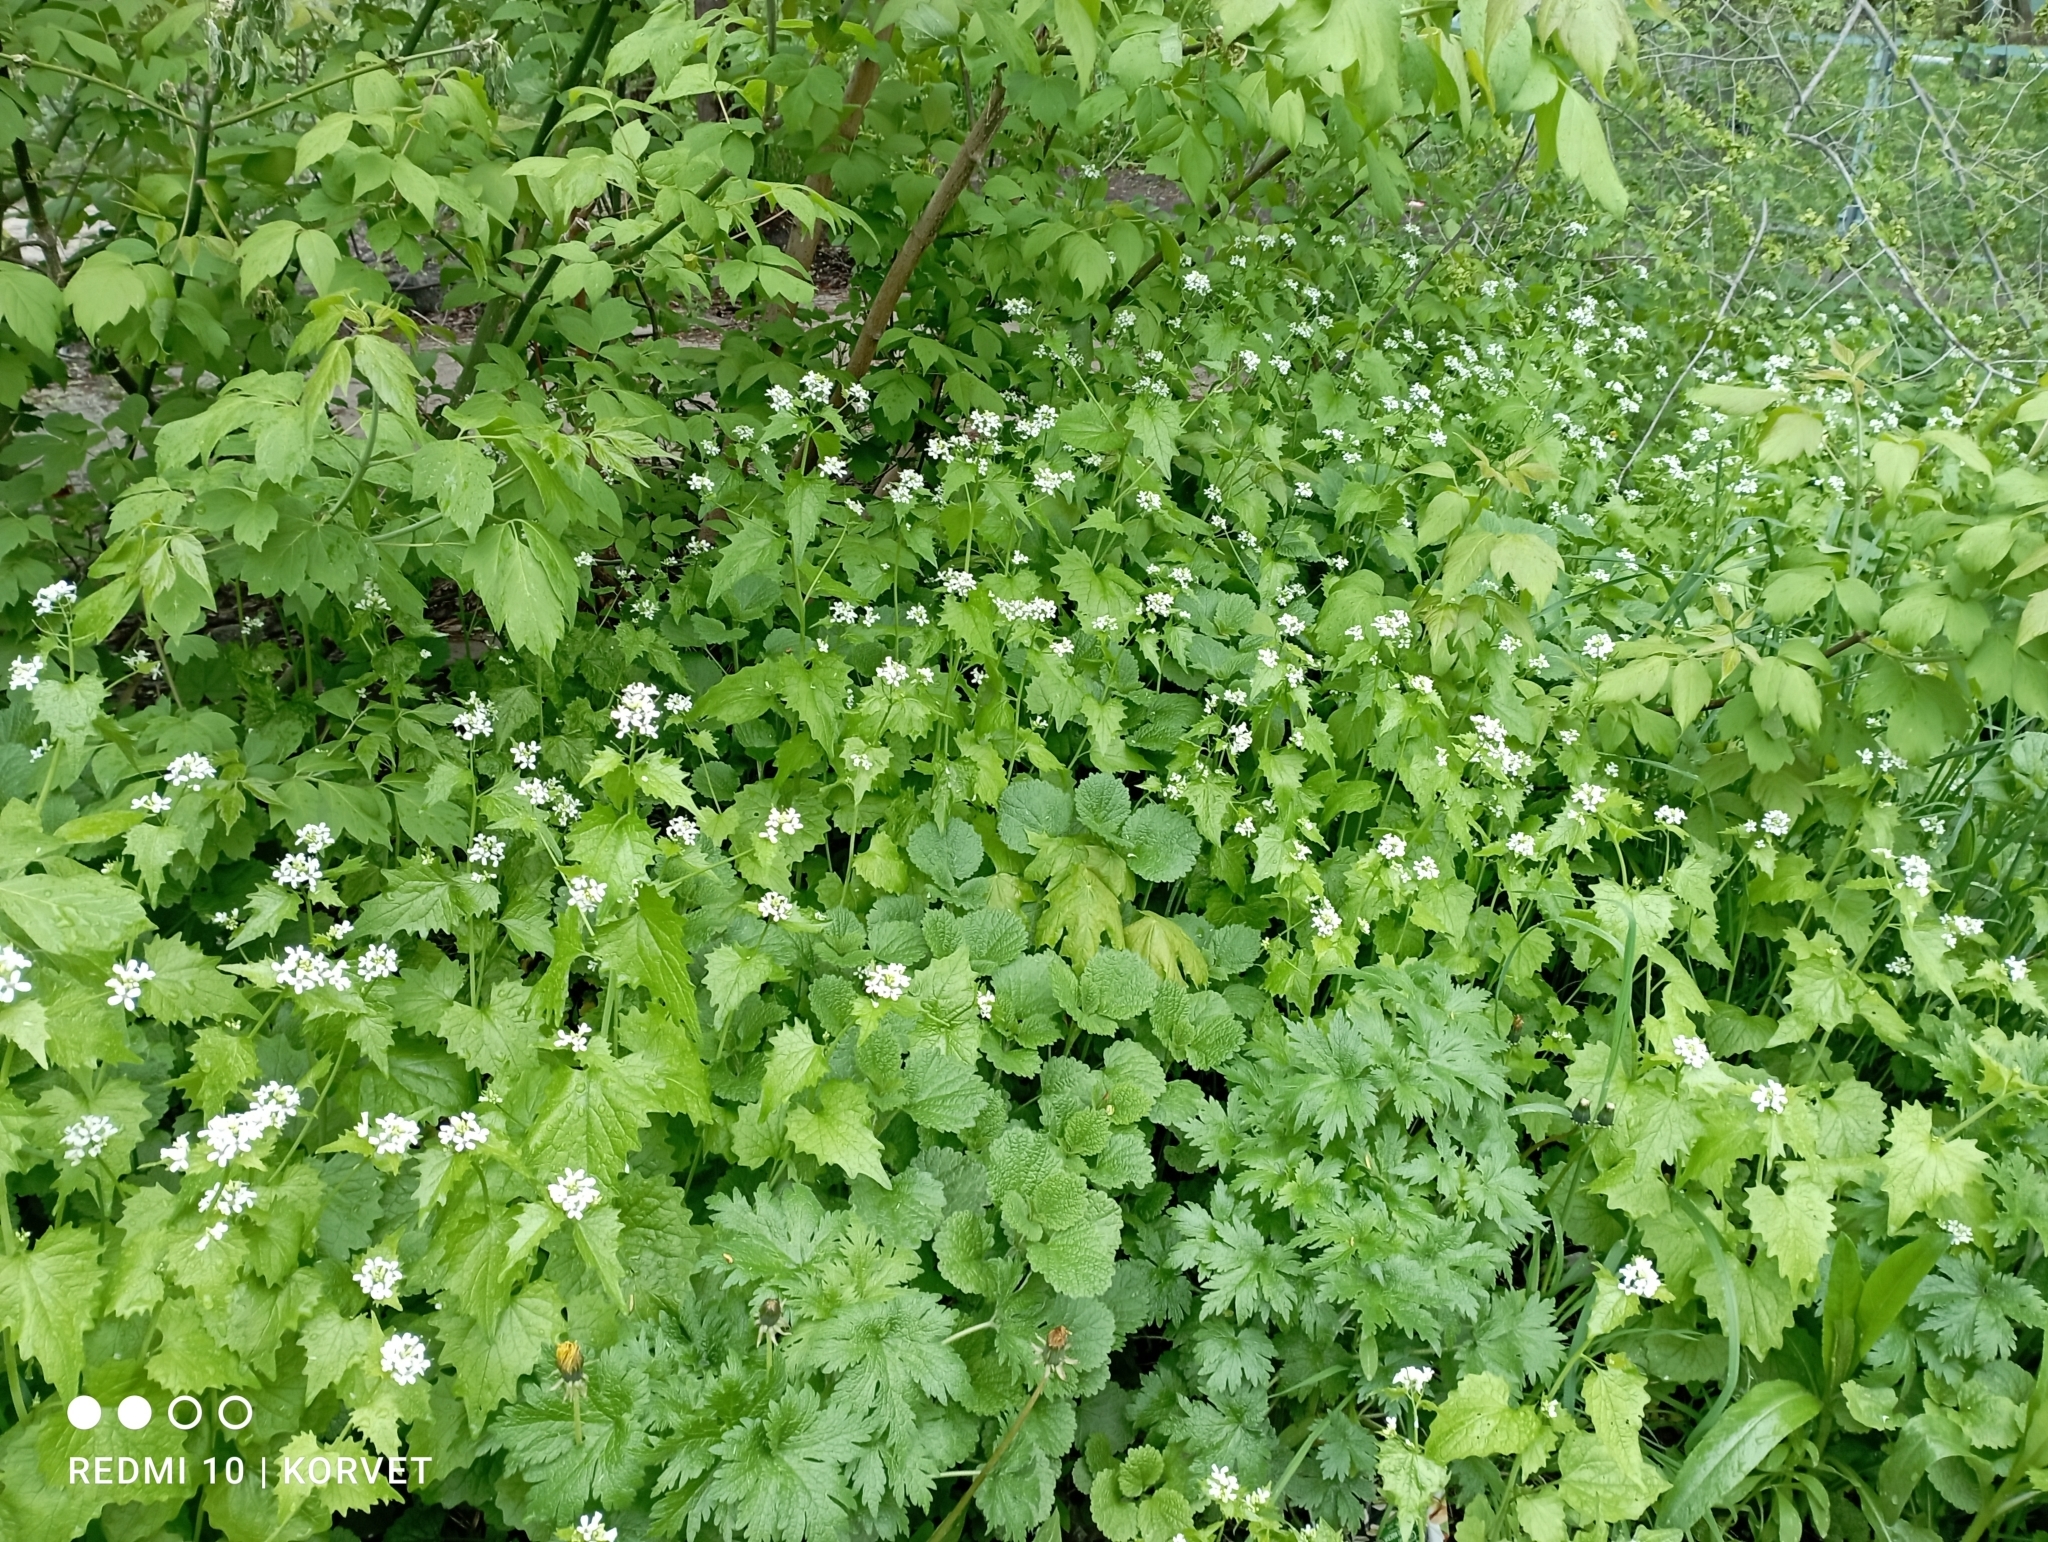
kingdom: Plantae
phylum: Tracheophyta
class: Magnoliopsida
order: Brassicales
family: Brassicaceae
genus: Alliaria
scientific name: Alliaria petiolata
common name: Garlic mustard
